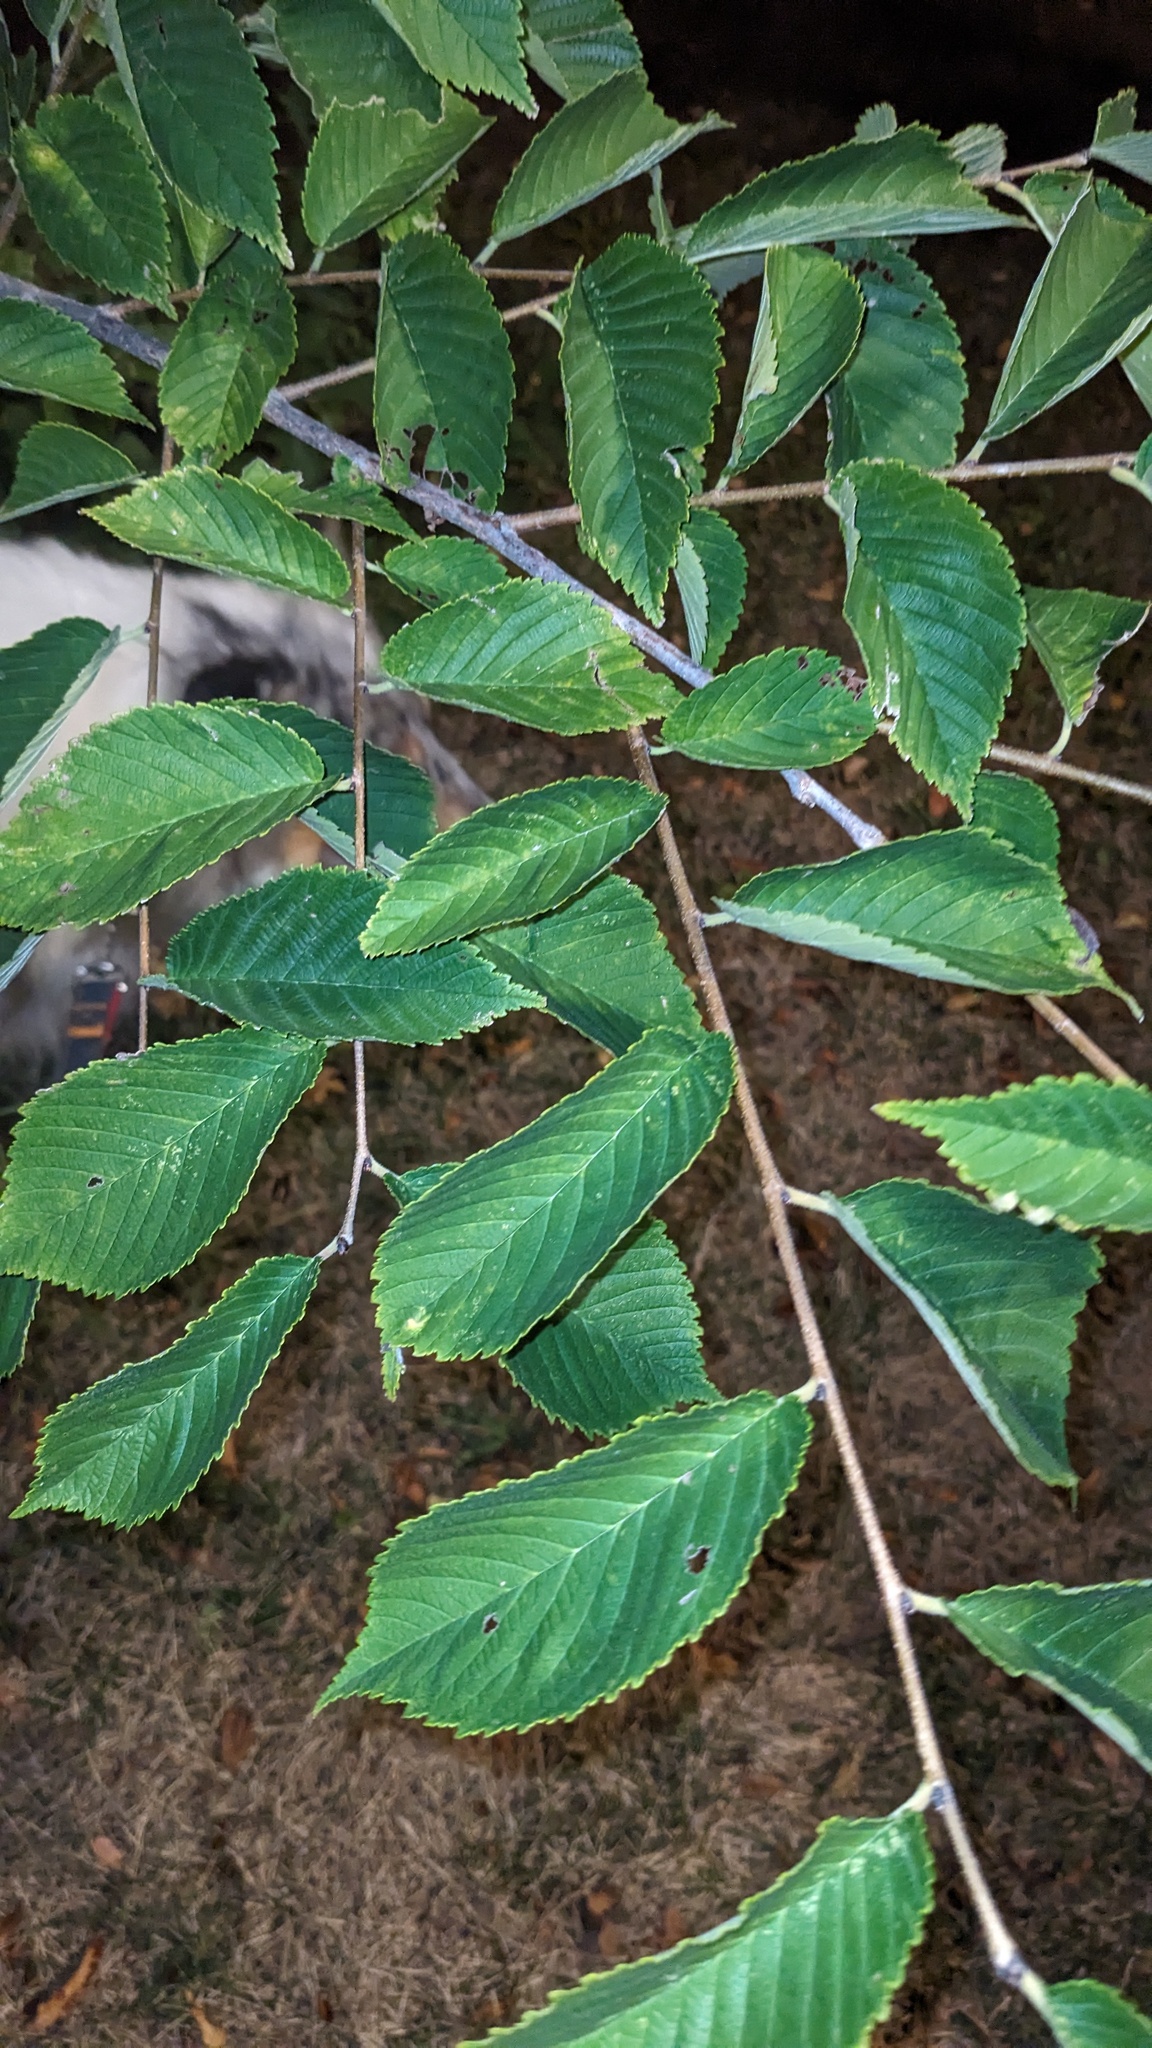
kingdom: Plantae
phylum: Tracheophyta
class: Magnoliopsida
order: Rosales
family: Ulmaceae
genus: Ulmus
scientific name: Ulmus rubra
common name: Slippery elm
